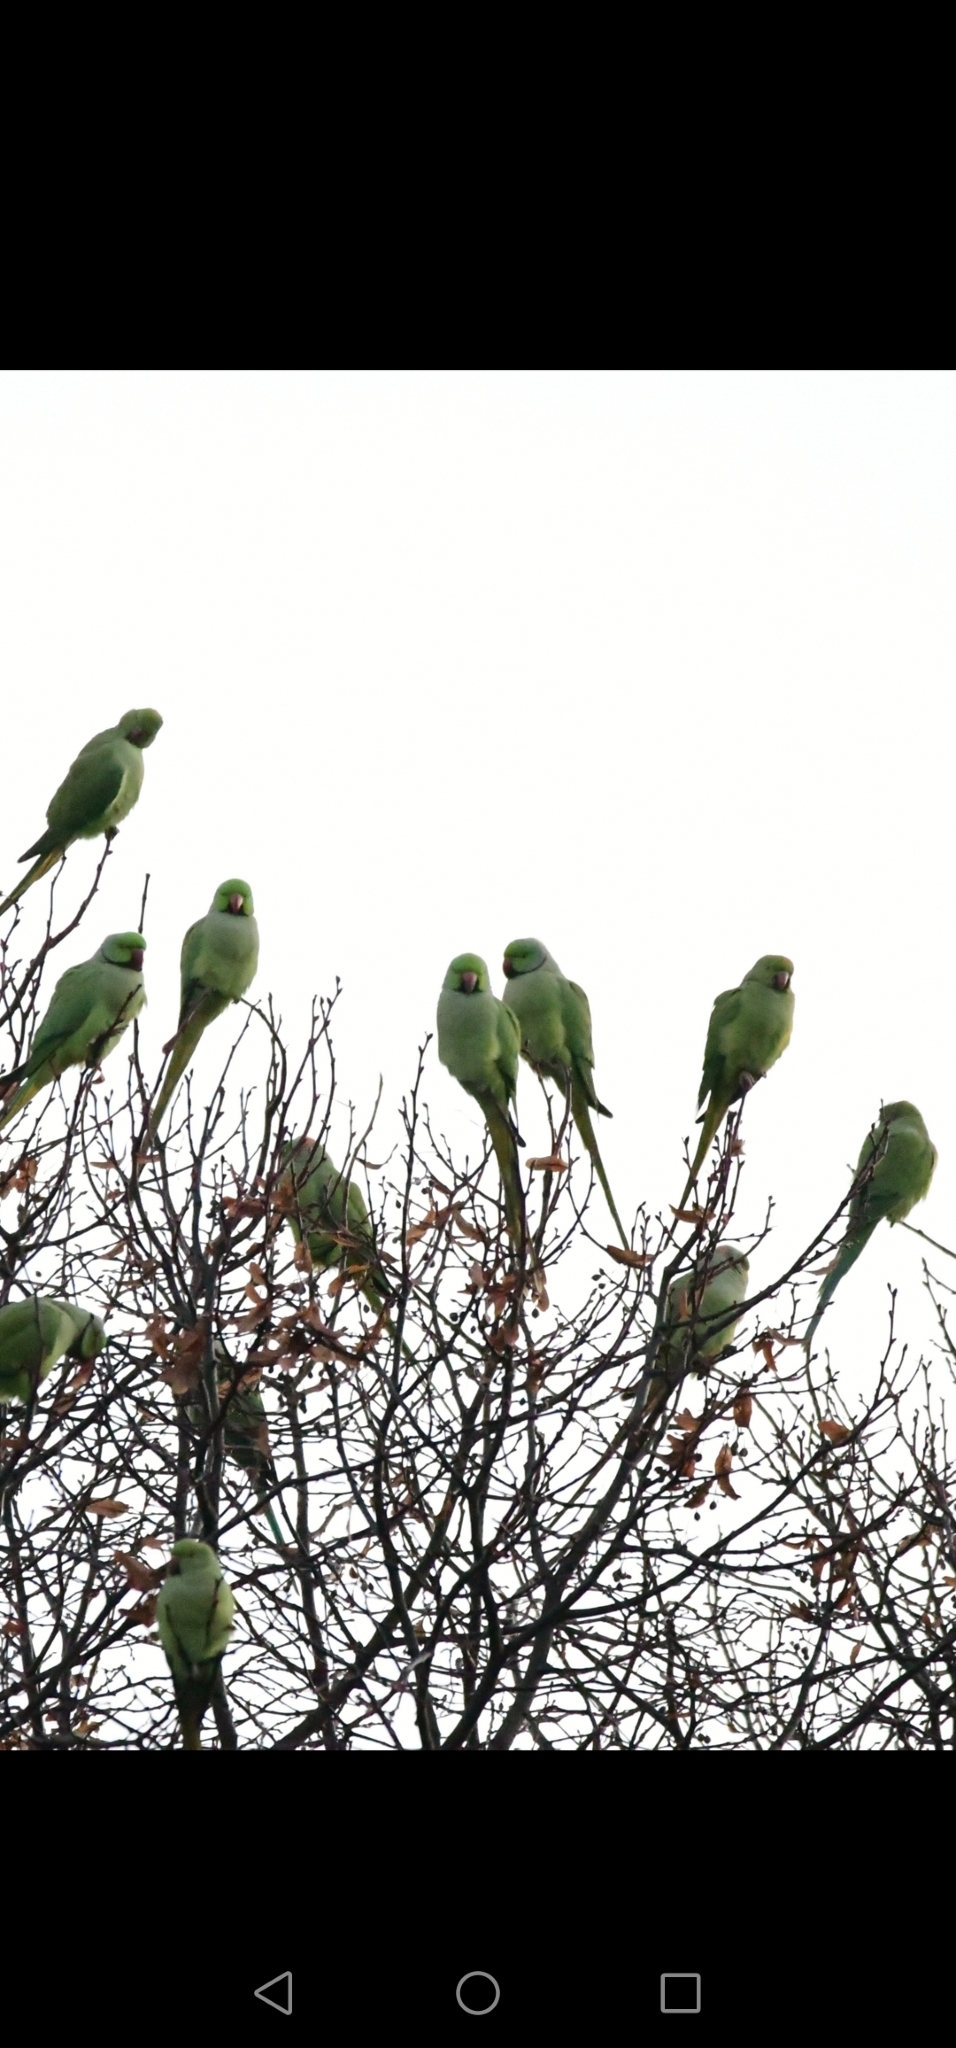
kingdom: Animalia
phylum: Chordata
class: Aves
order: Psittaciformes
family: Psittacidae
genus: Psittacula
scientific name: Psittacula krameri
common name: Rose-ringed parakeet
